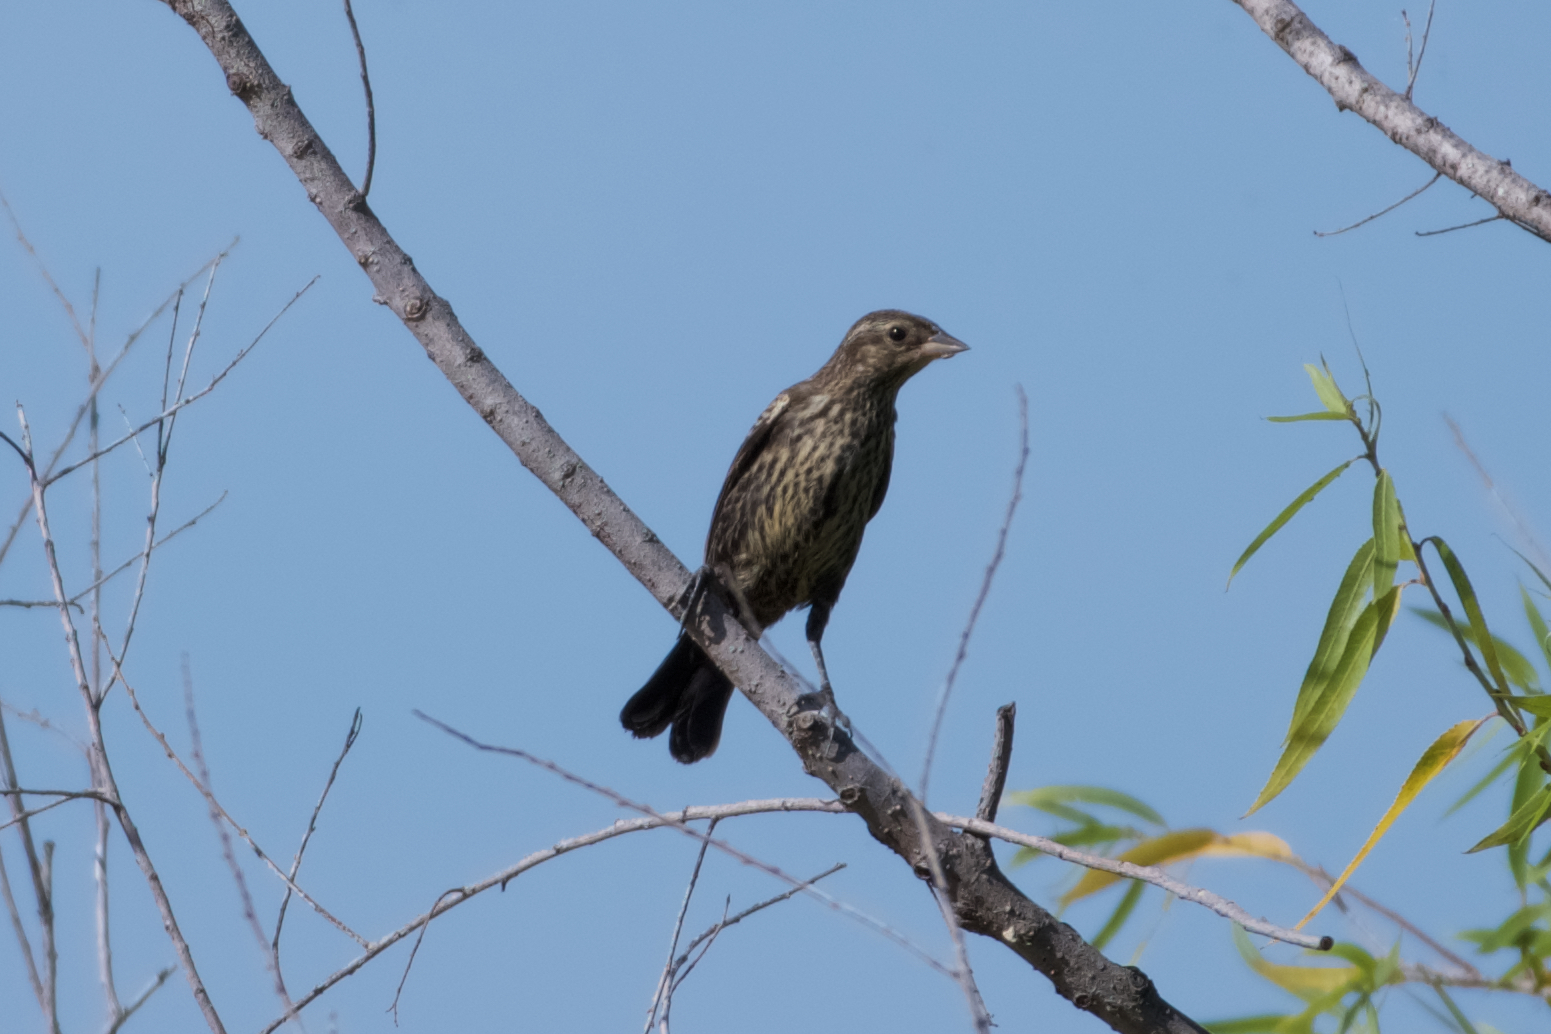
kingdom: Animalia
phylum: Chordata
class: Aves
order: Passeriformes
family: Icteridae
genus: Agelaius
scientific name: Agelaius phoeniceus
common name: Red-winged blackbird
